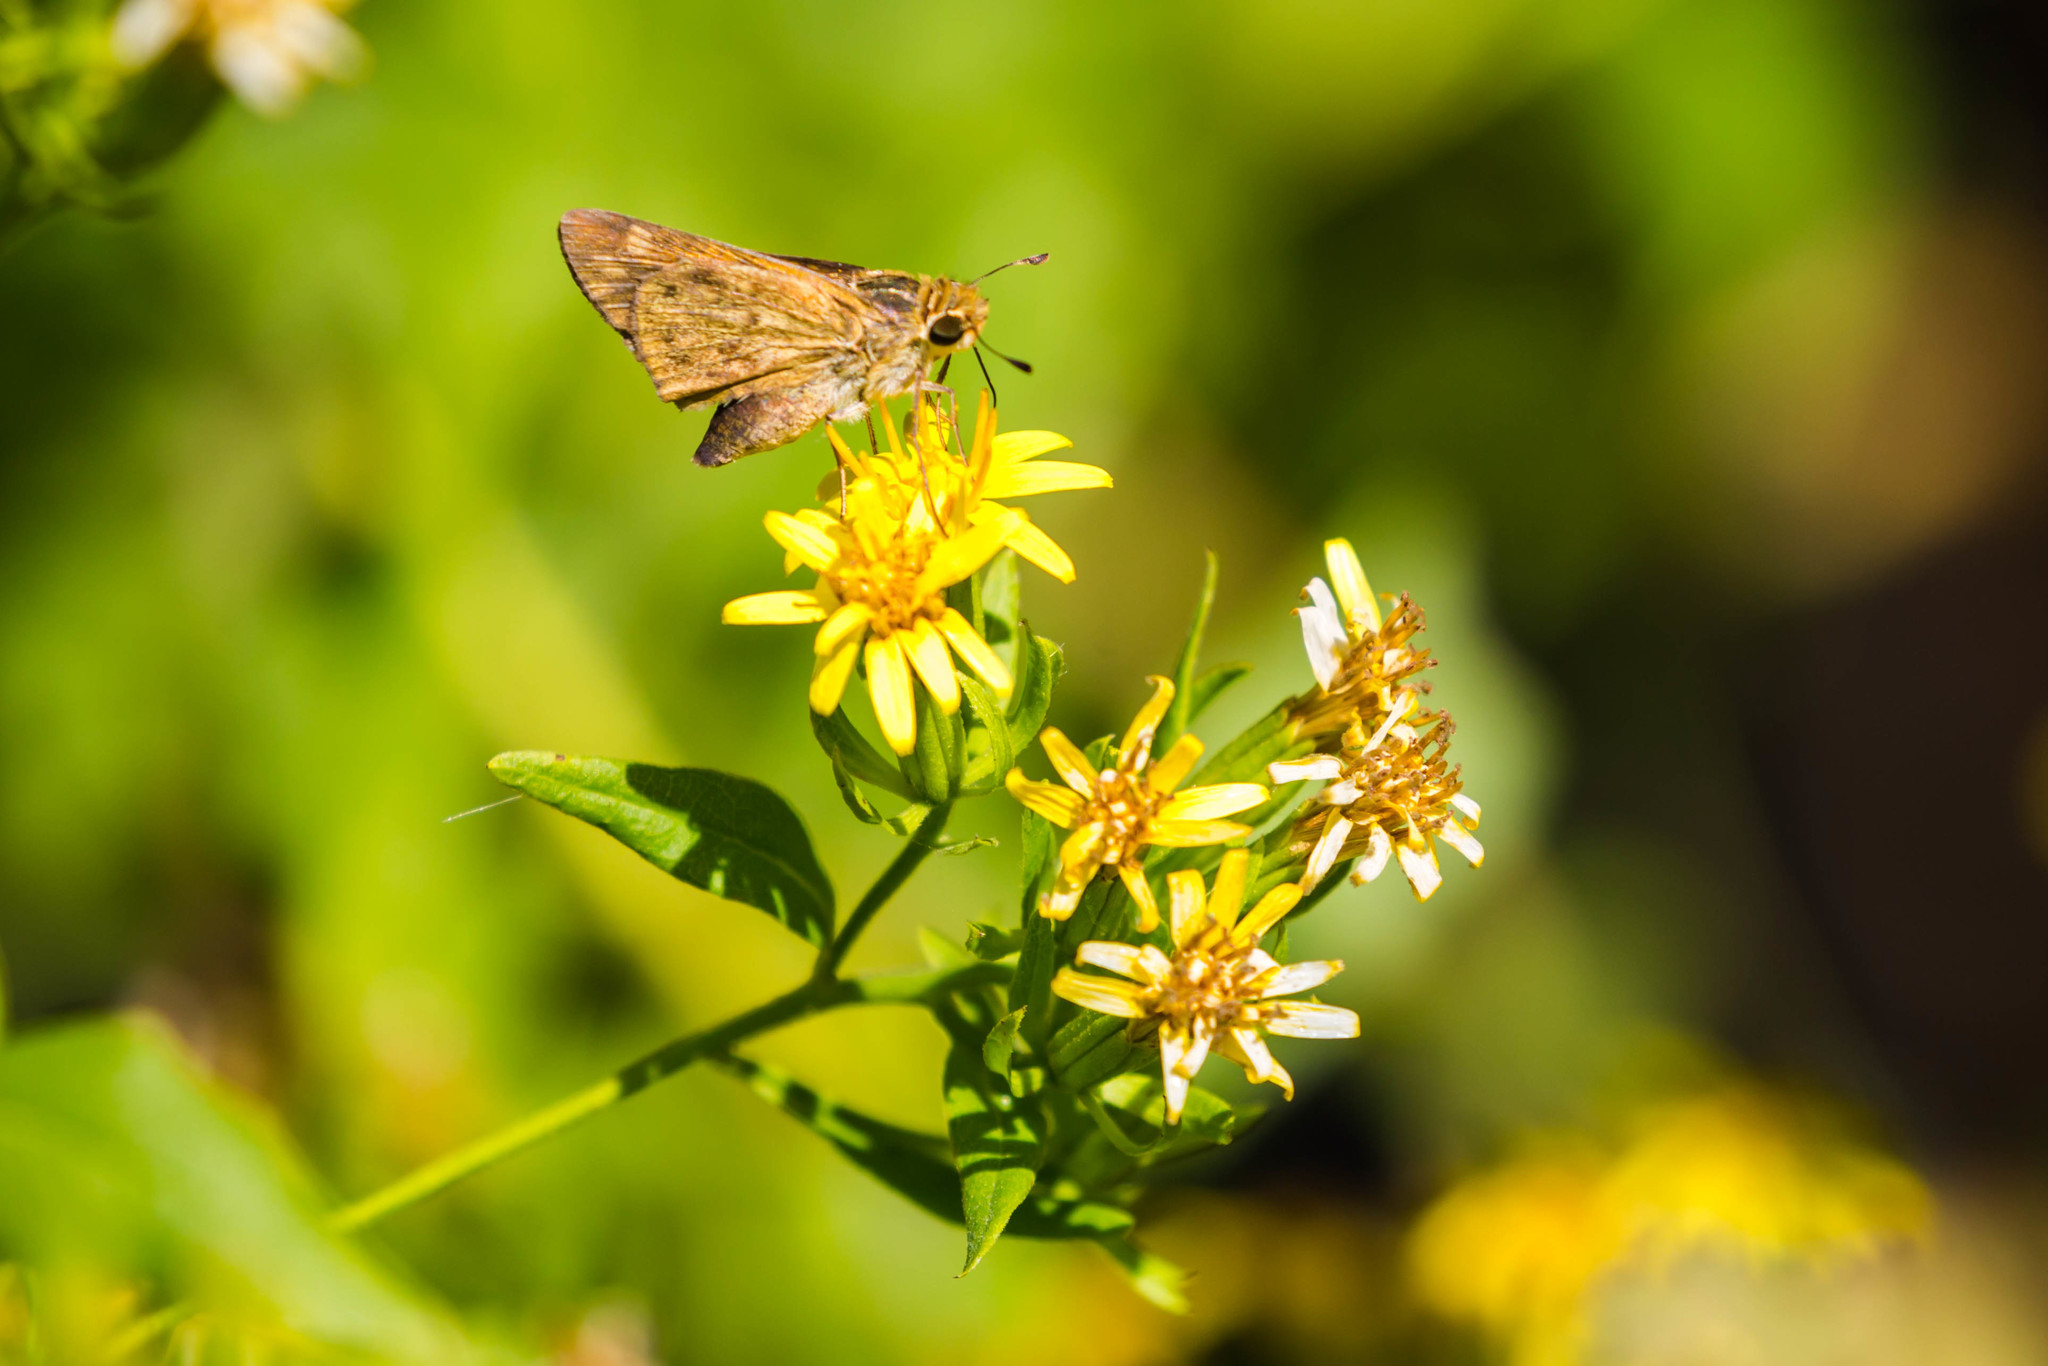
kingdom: Animalia
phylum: Arthropoda
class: Insecta
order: Lepidoptera
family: Hesperiidae
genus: Hylephila
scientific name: Hylephila phyleus
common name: Fiery skipper
